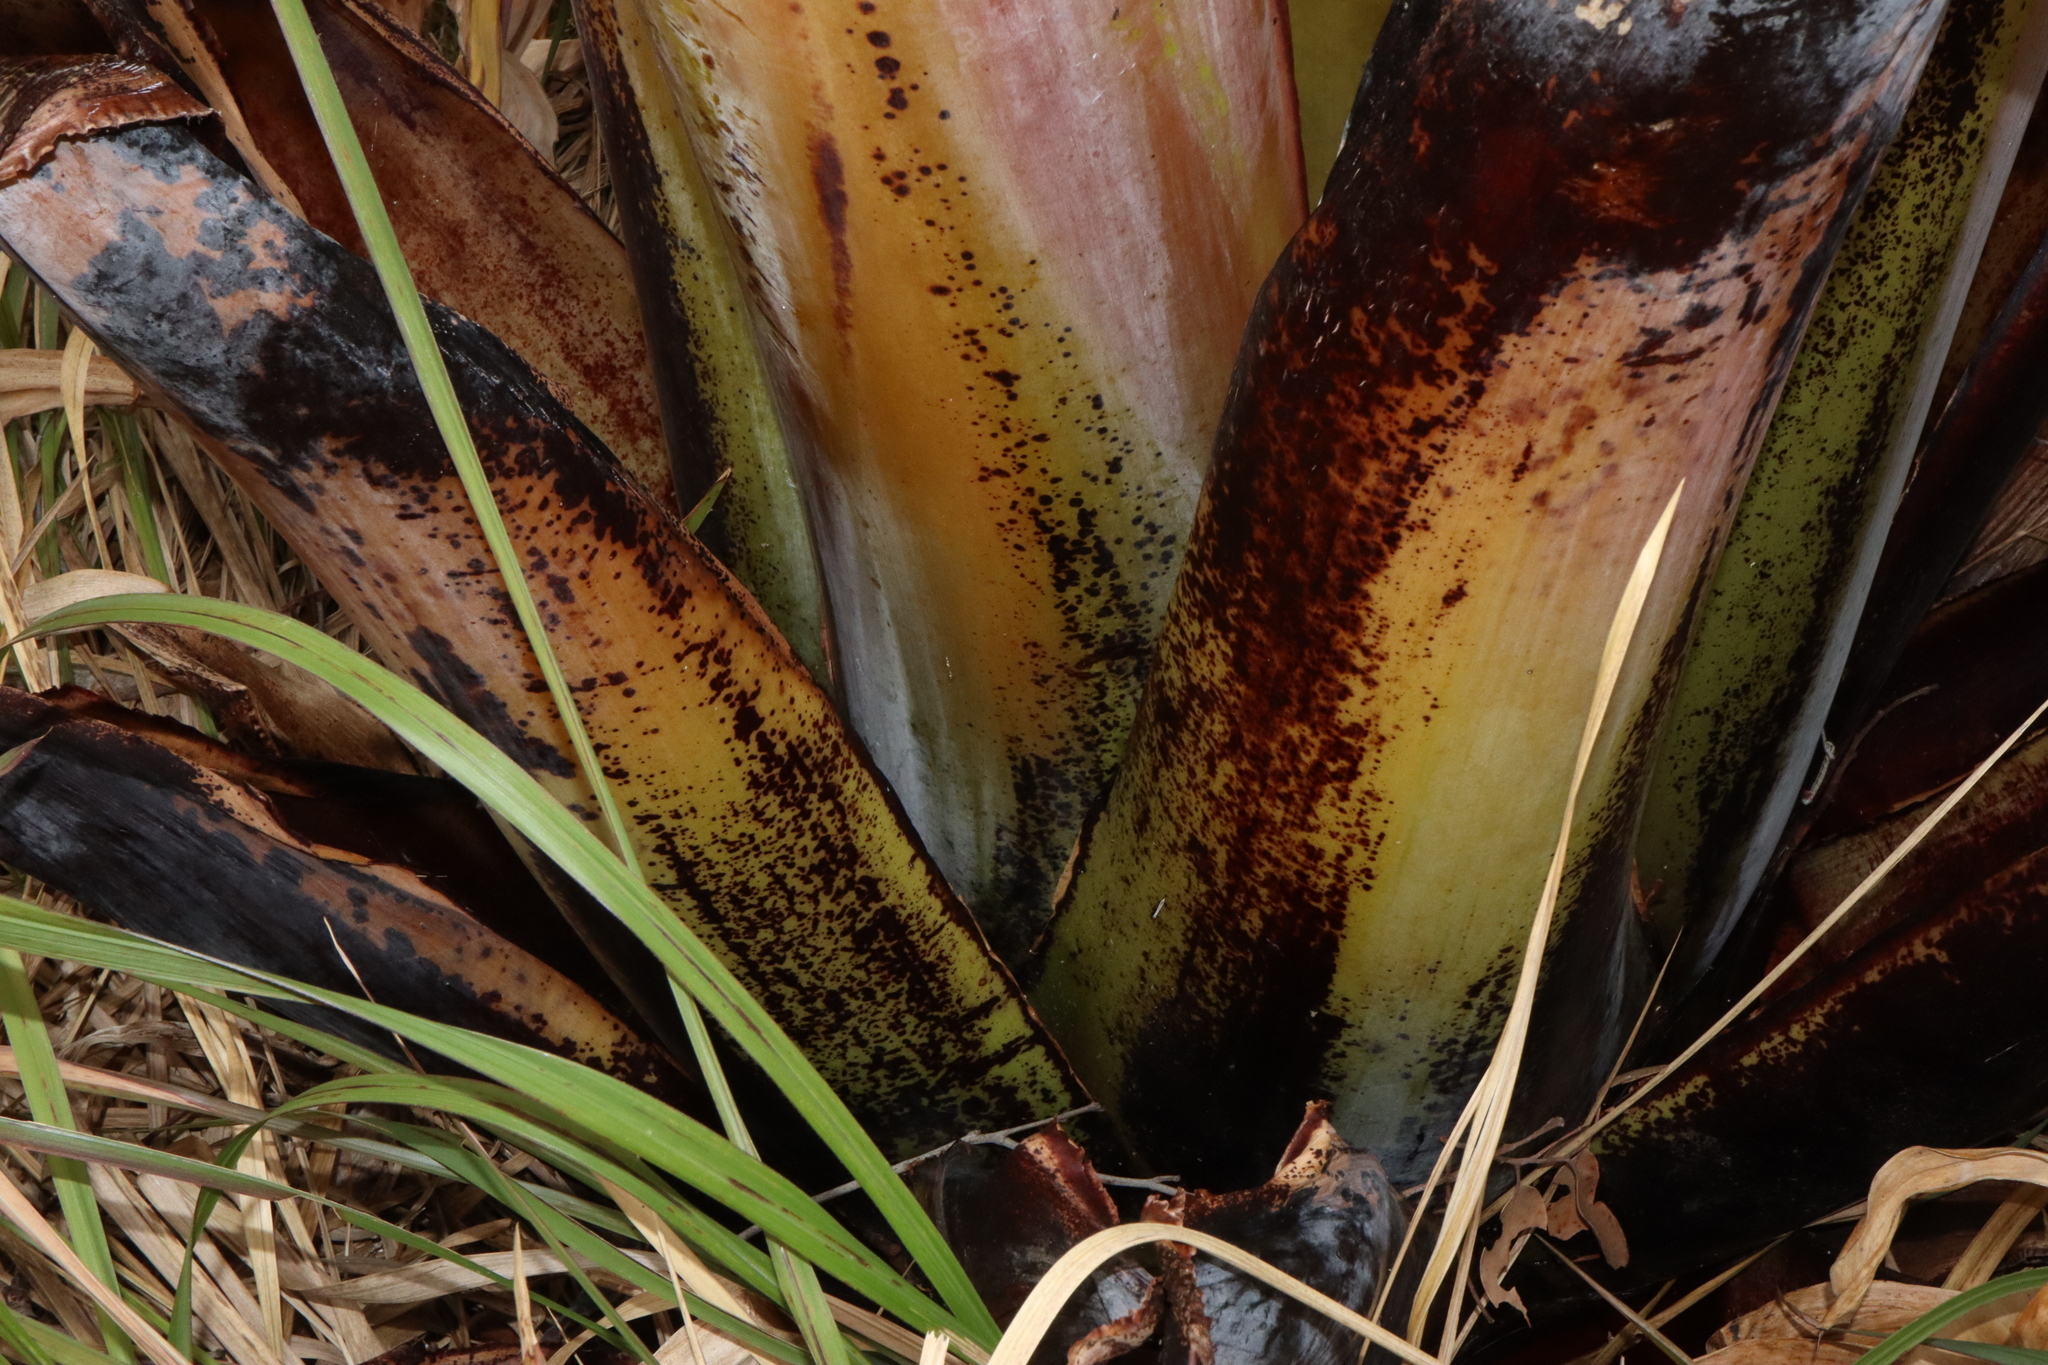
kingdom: Plantae
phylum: Tracheophyta
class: Liliopsida
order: Zingiberales
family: Musaceae
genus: Ensete
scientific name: Ensete ventricosum
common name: Abyssinian banana
